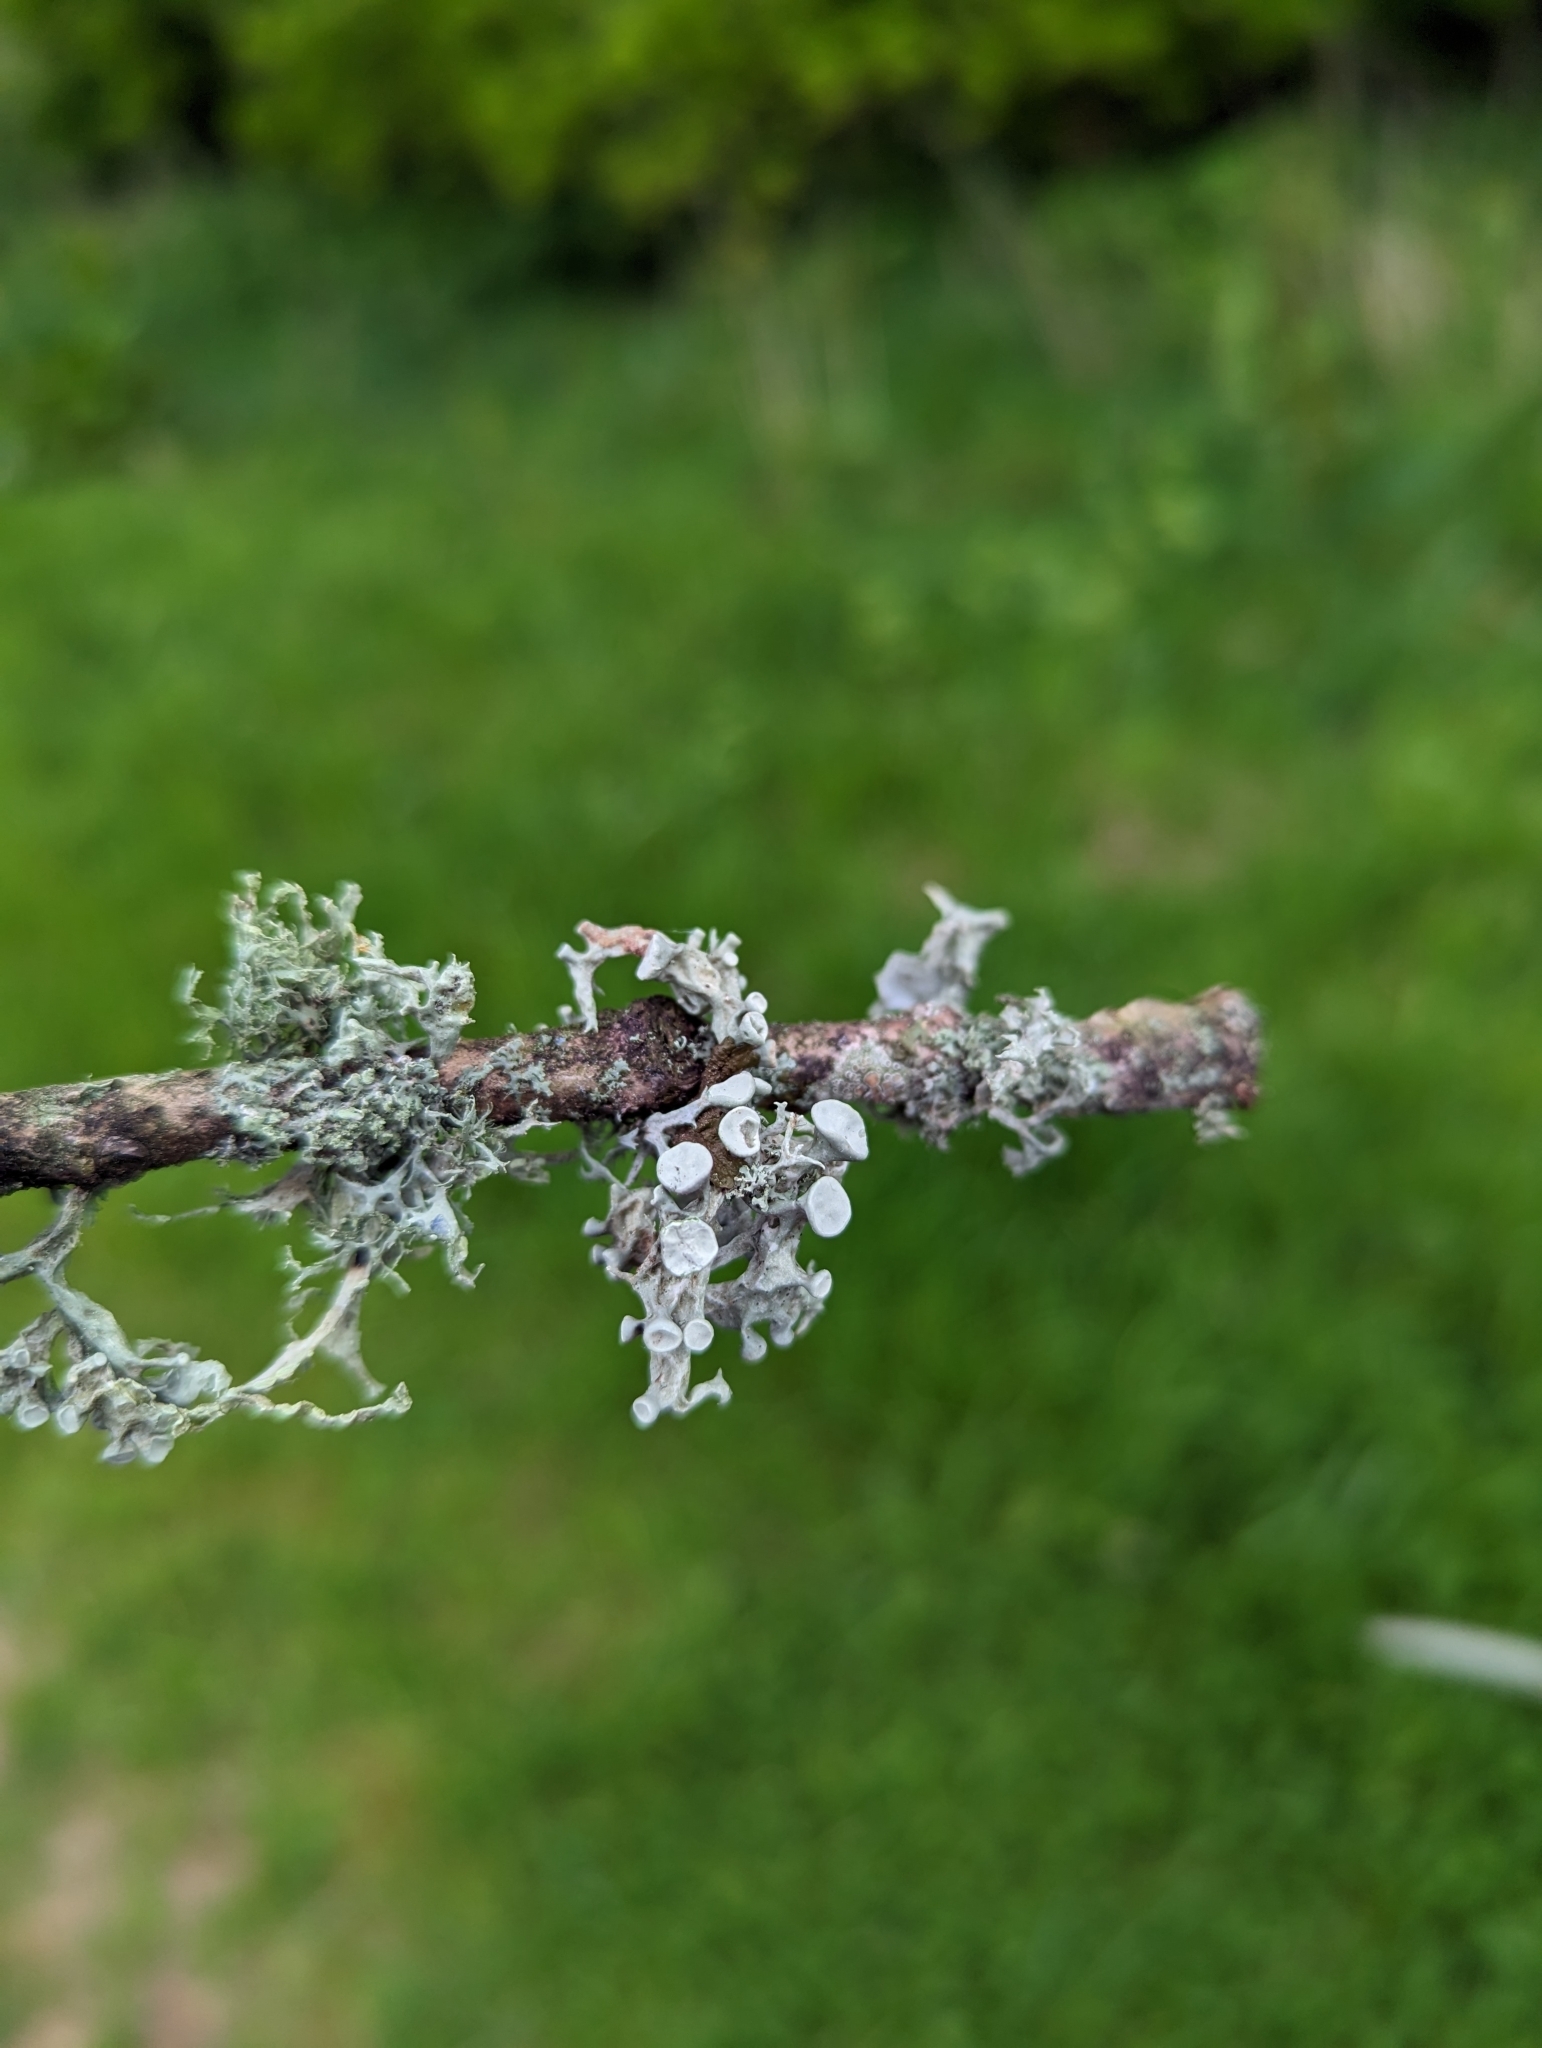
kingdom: Fungi
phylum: Ascomycota
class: Lecanoromycetes
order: Lecanorales
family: Ramalinaceae
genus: Ramalina
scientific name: Ramalina fastigiata
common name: Dotted ribbon lichen
